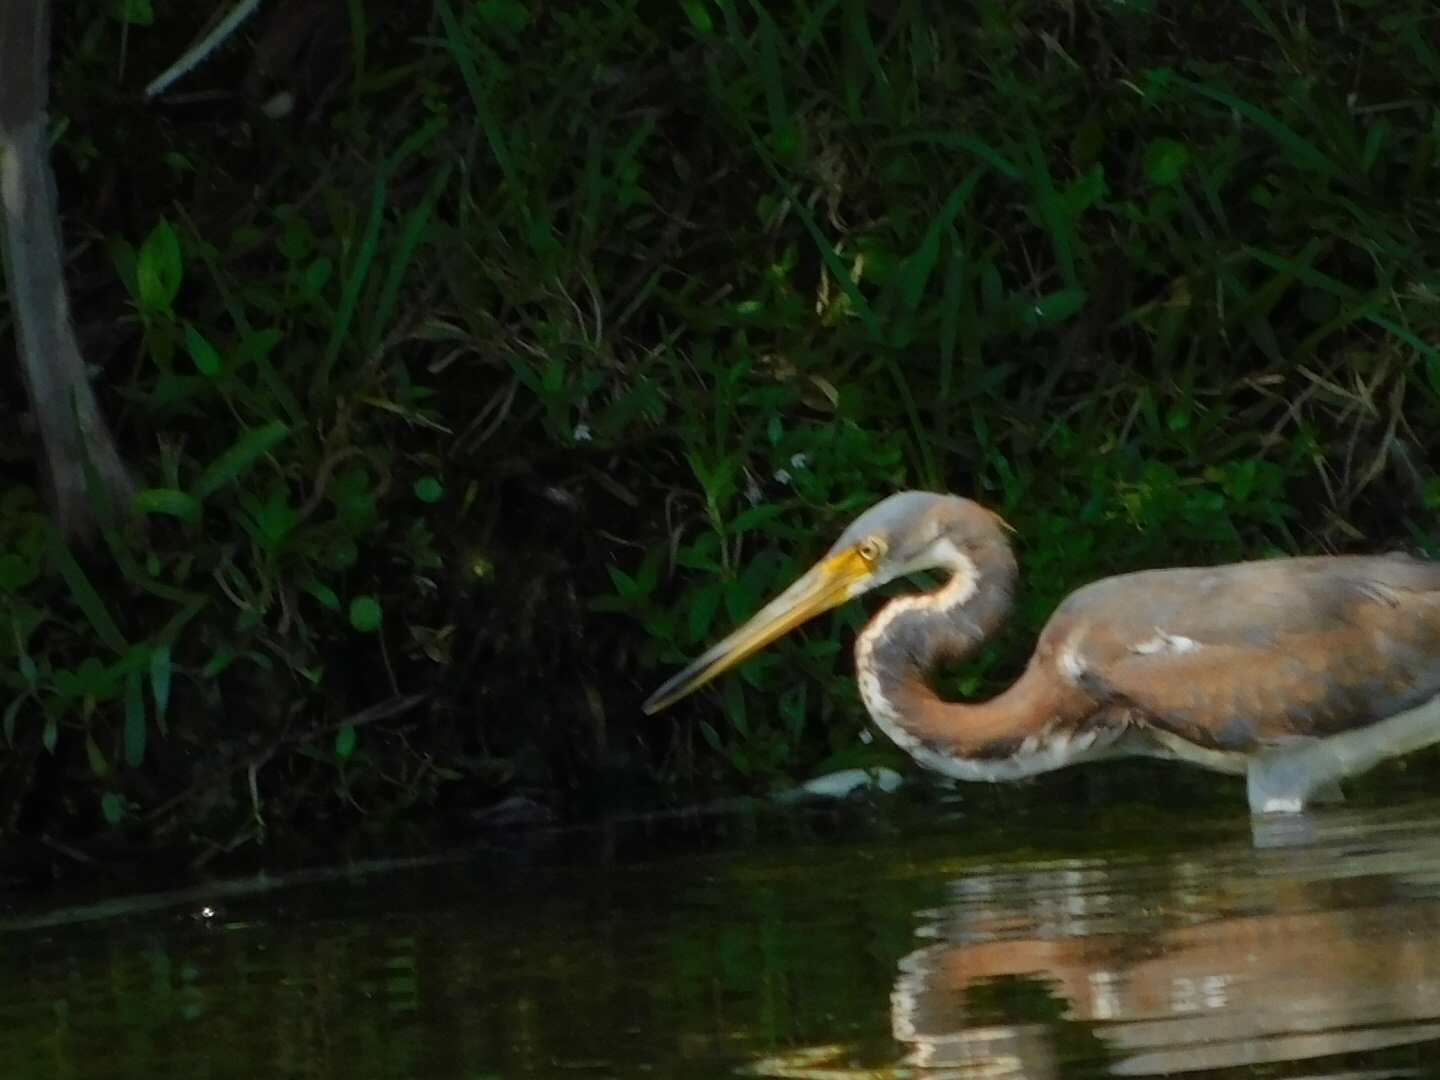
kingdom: Animalia
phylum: Chordata
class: Aves
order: Pelecaniformes
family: Ardeidae
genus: Egretta
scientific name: Egretta tricolor
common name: Tricolored heron
